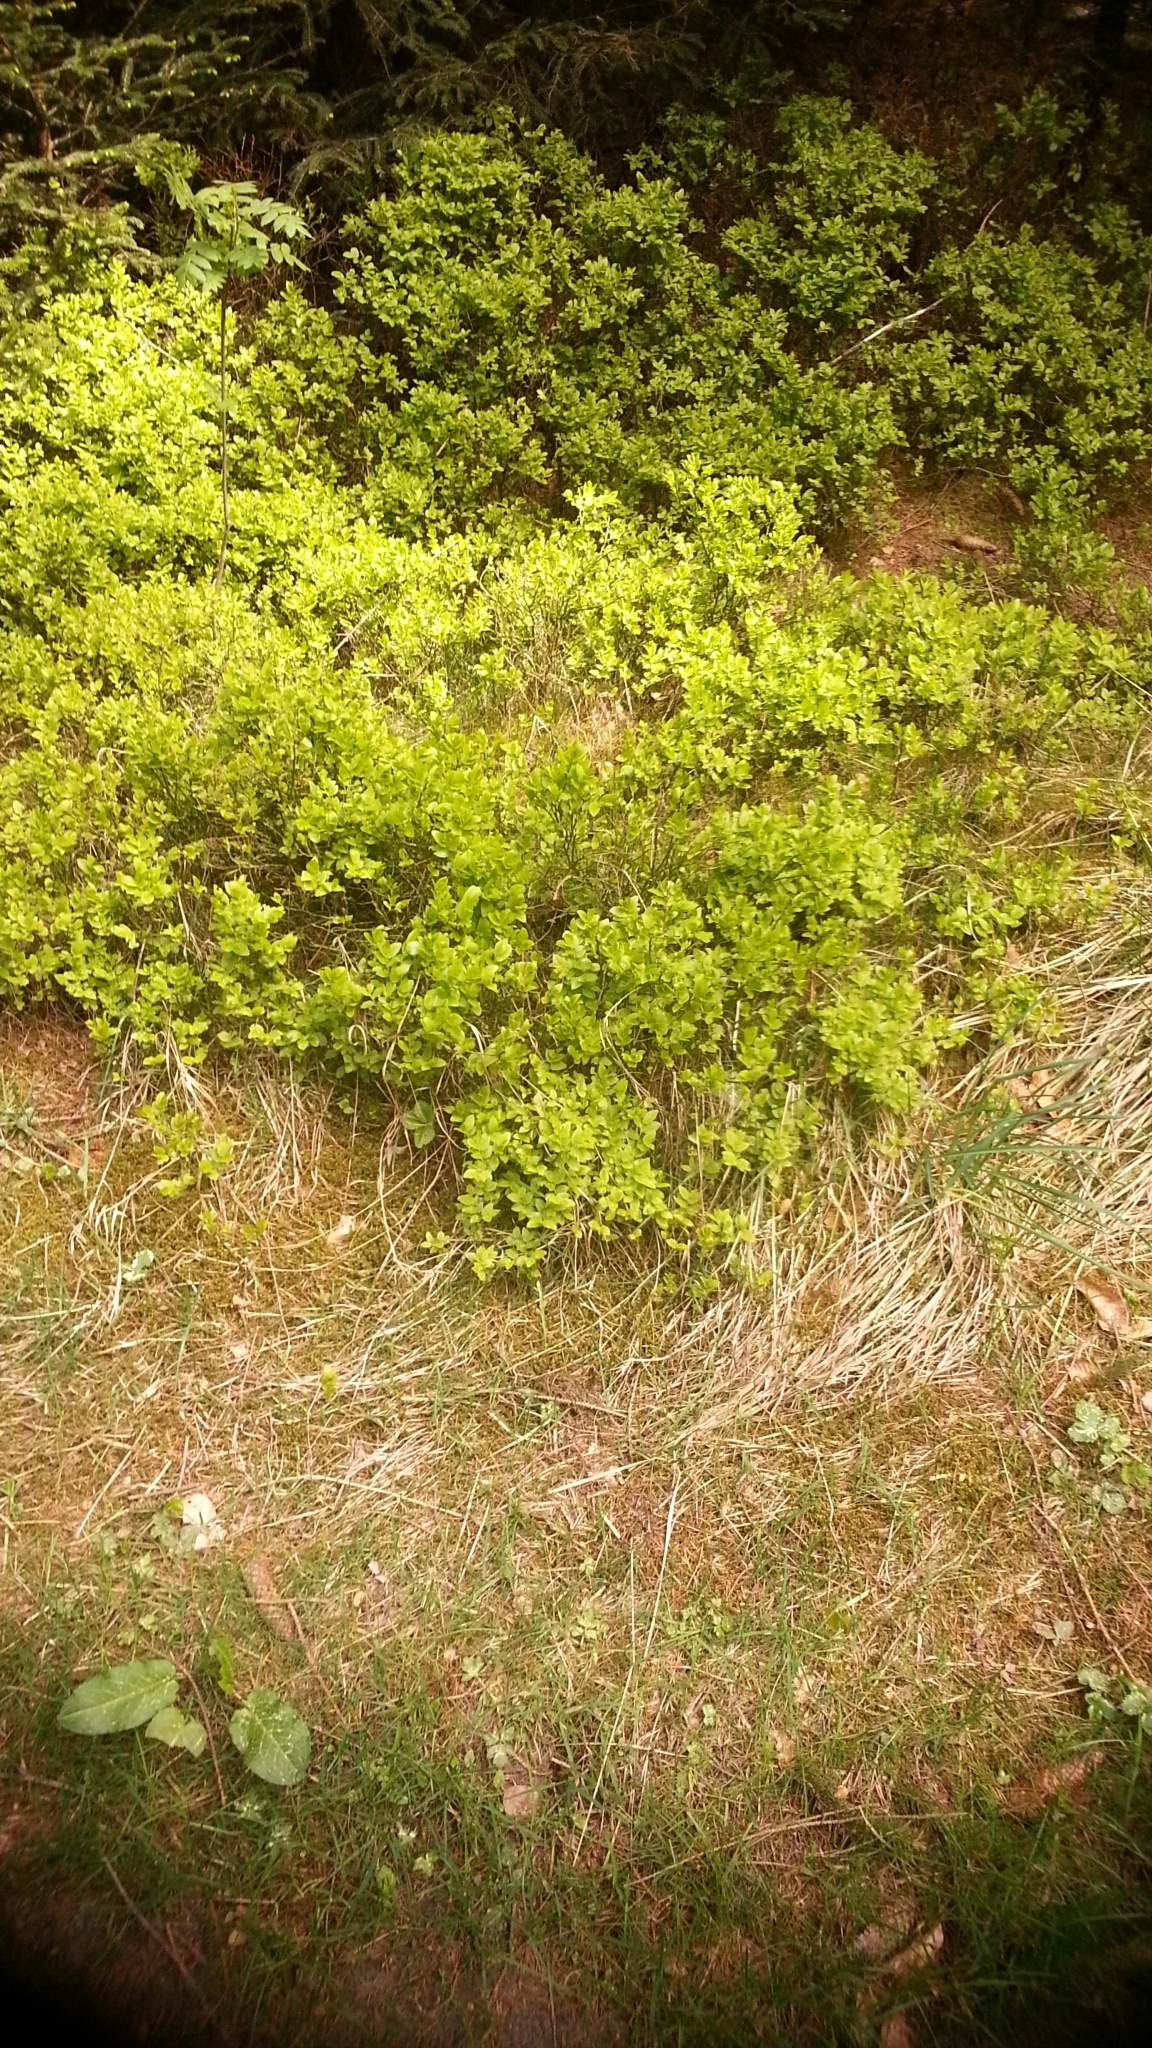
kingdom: Plantae
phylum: Tracheophyta
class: Magnoliopsida
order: Ericales
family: Ericaceae
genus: Vaccinium
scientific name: Vaccinium myrtillus
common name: Bilberry
